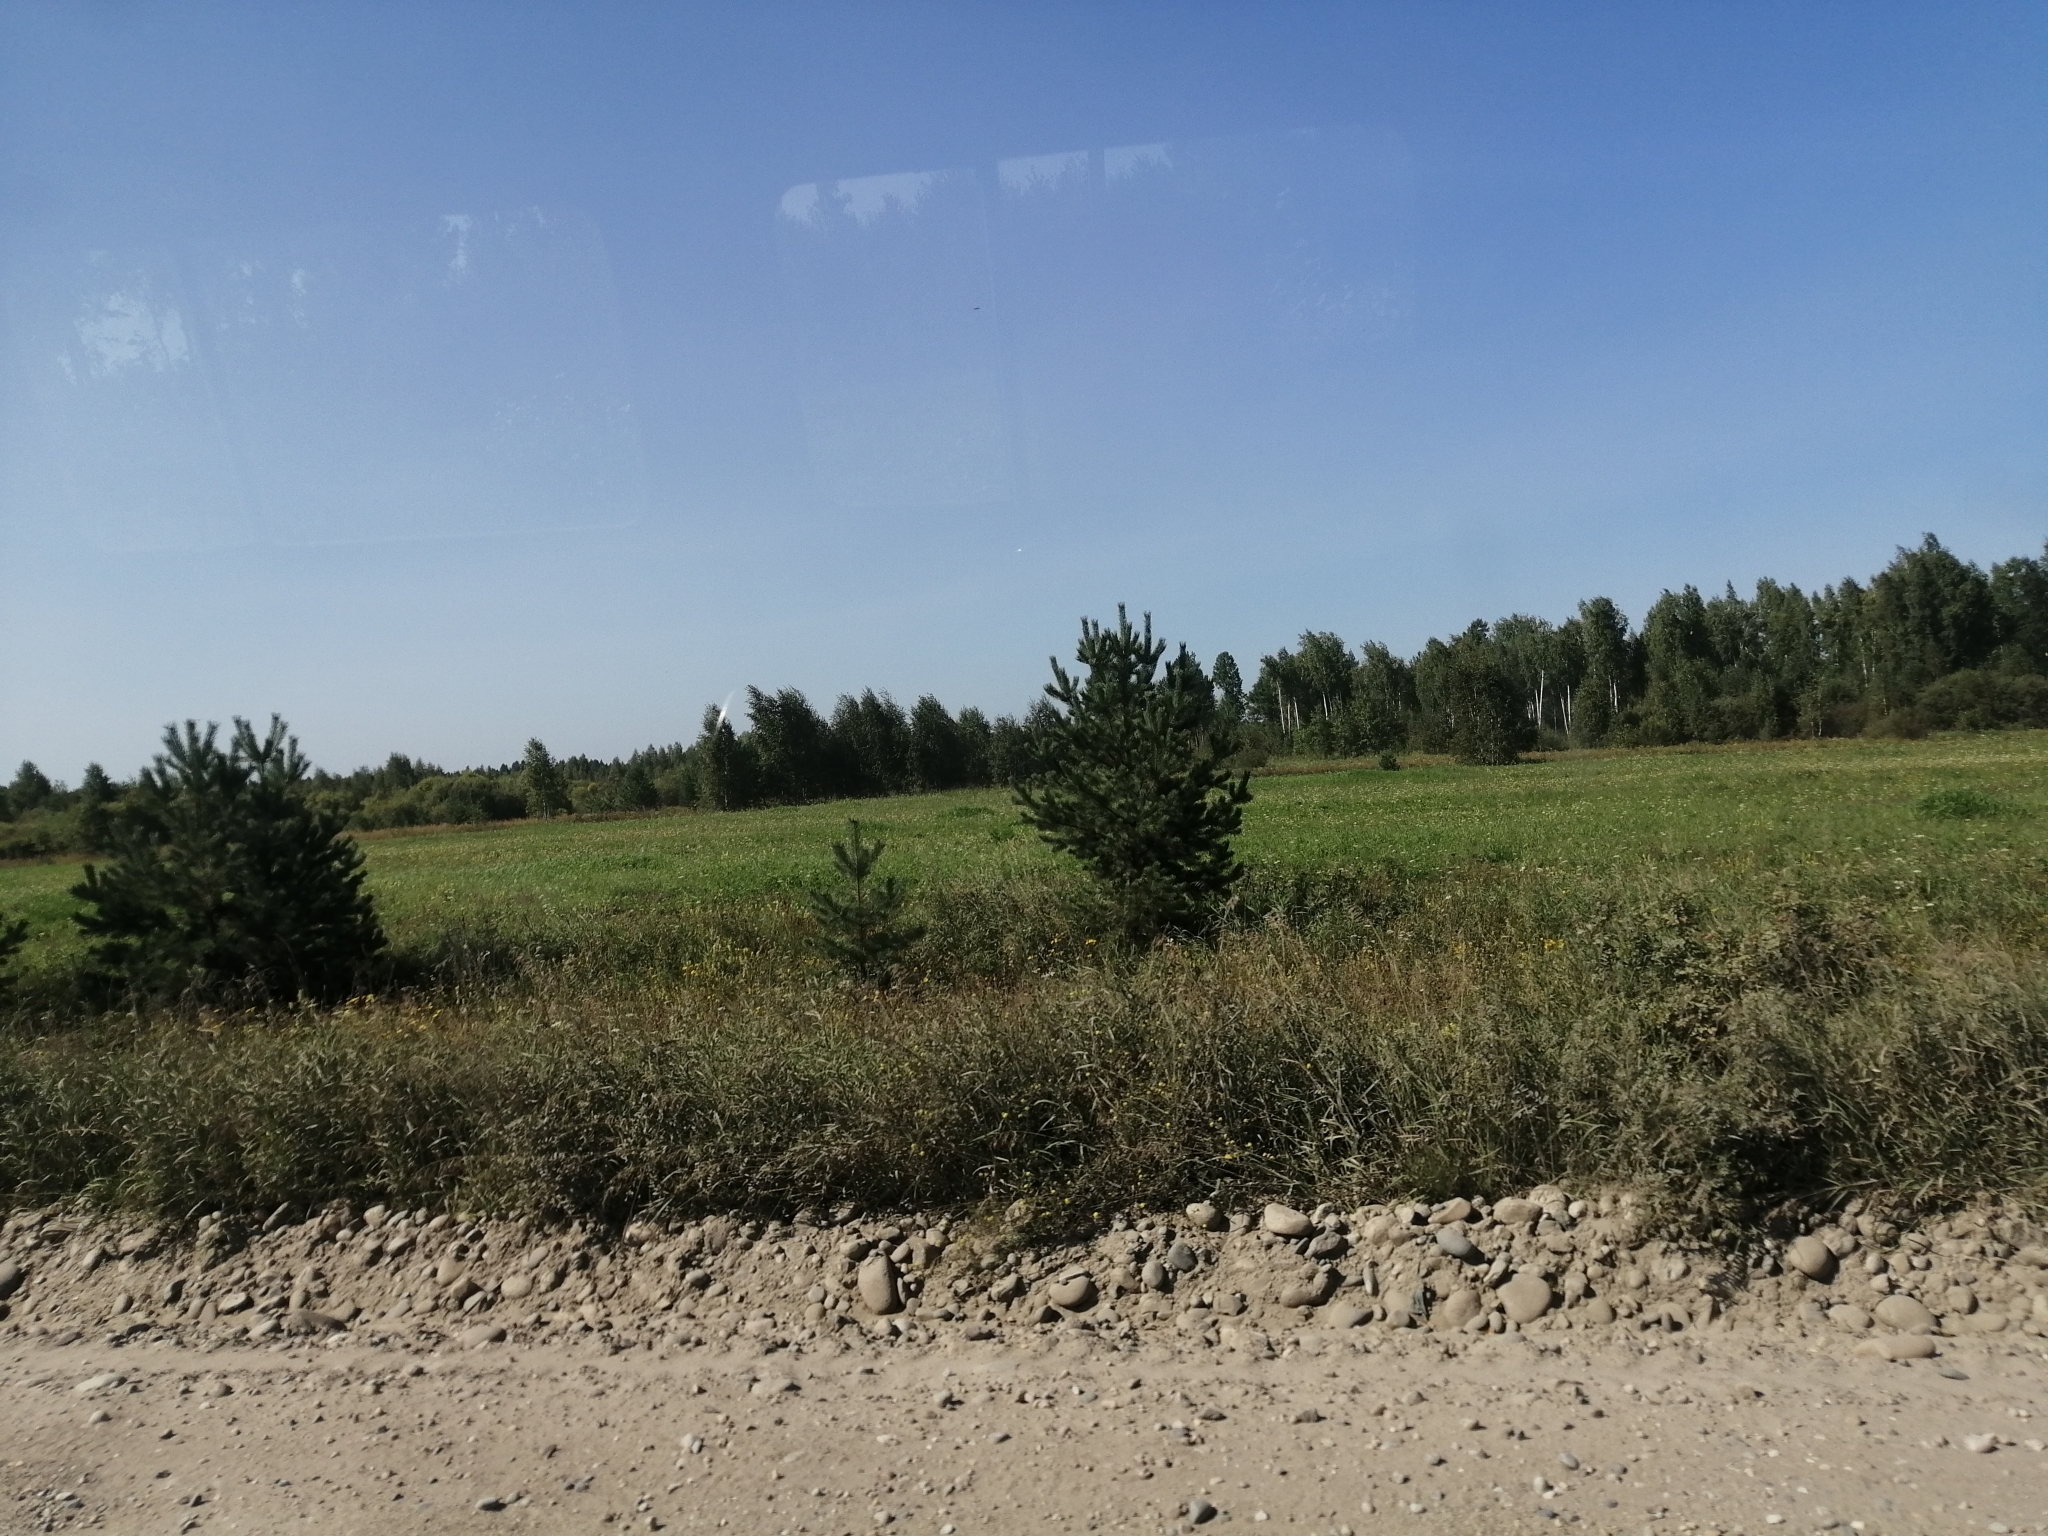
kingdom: Plantae
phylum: Tracheophyta
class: Pinopsida
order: Pinales
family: Pinaceae
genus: Pinus
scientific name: Pinus sylvestris
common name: Scots pine
